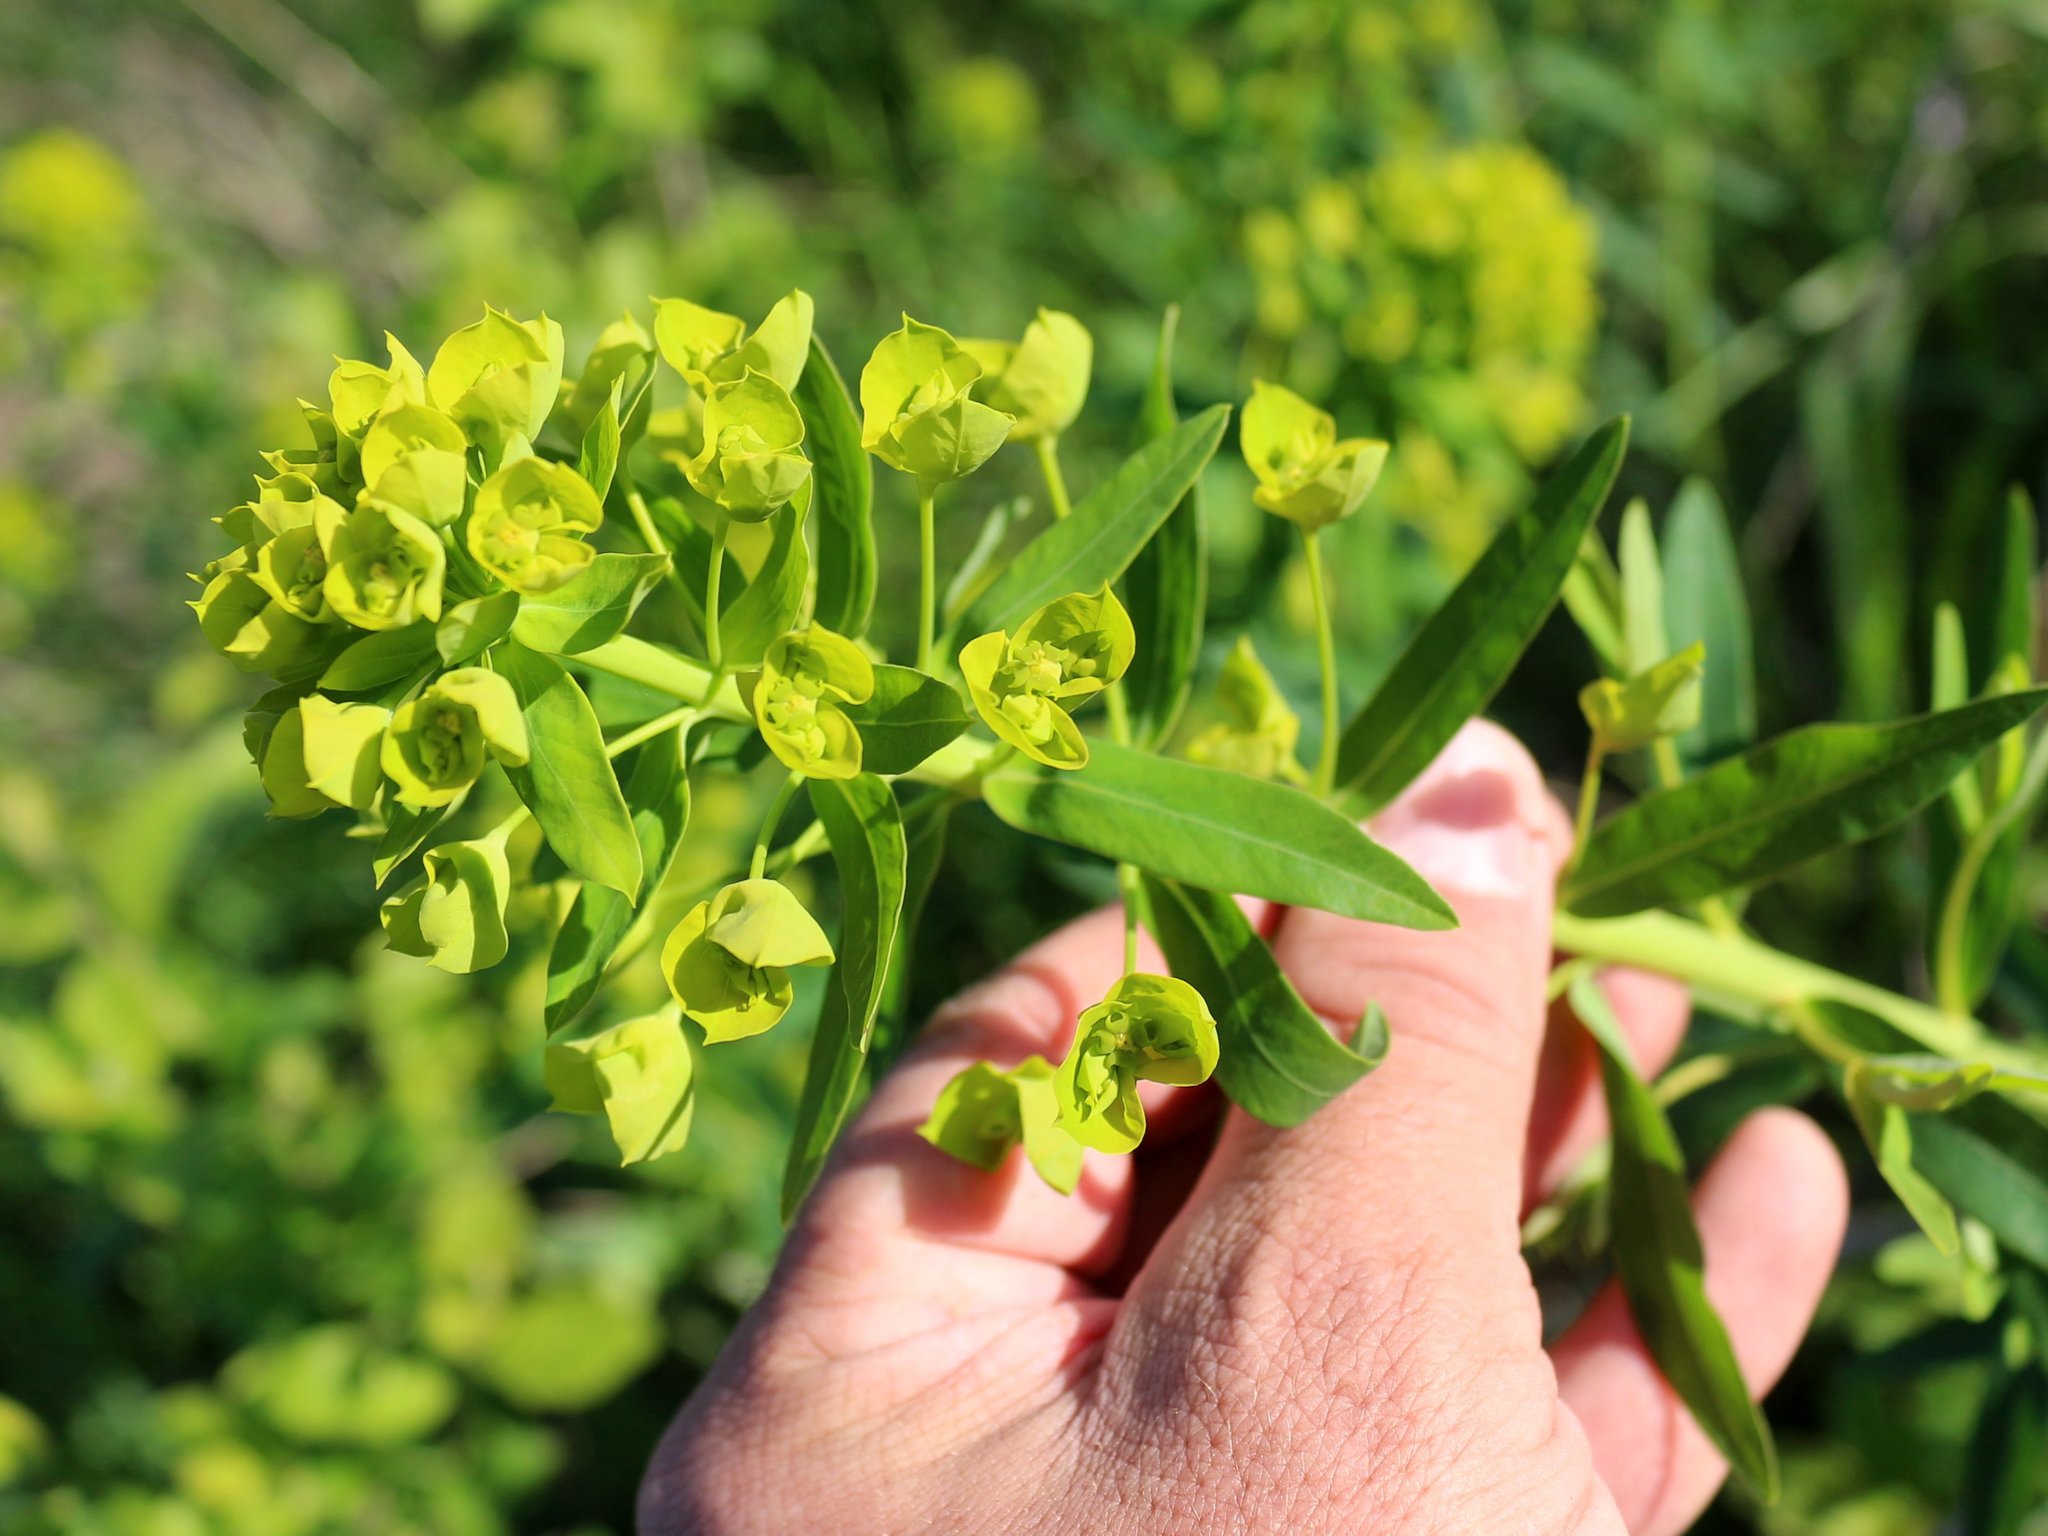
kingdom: Plantae
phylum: Tracheophyta
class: Magnoliopsida
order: Malpighiales
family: Euphorbiaceae
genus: Euphorbia
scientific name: Euphorbia virgata
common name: Leafy spurge
